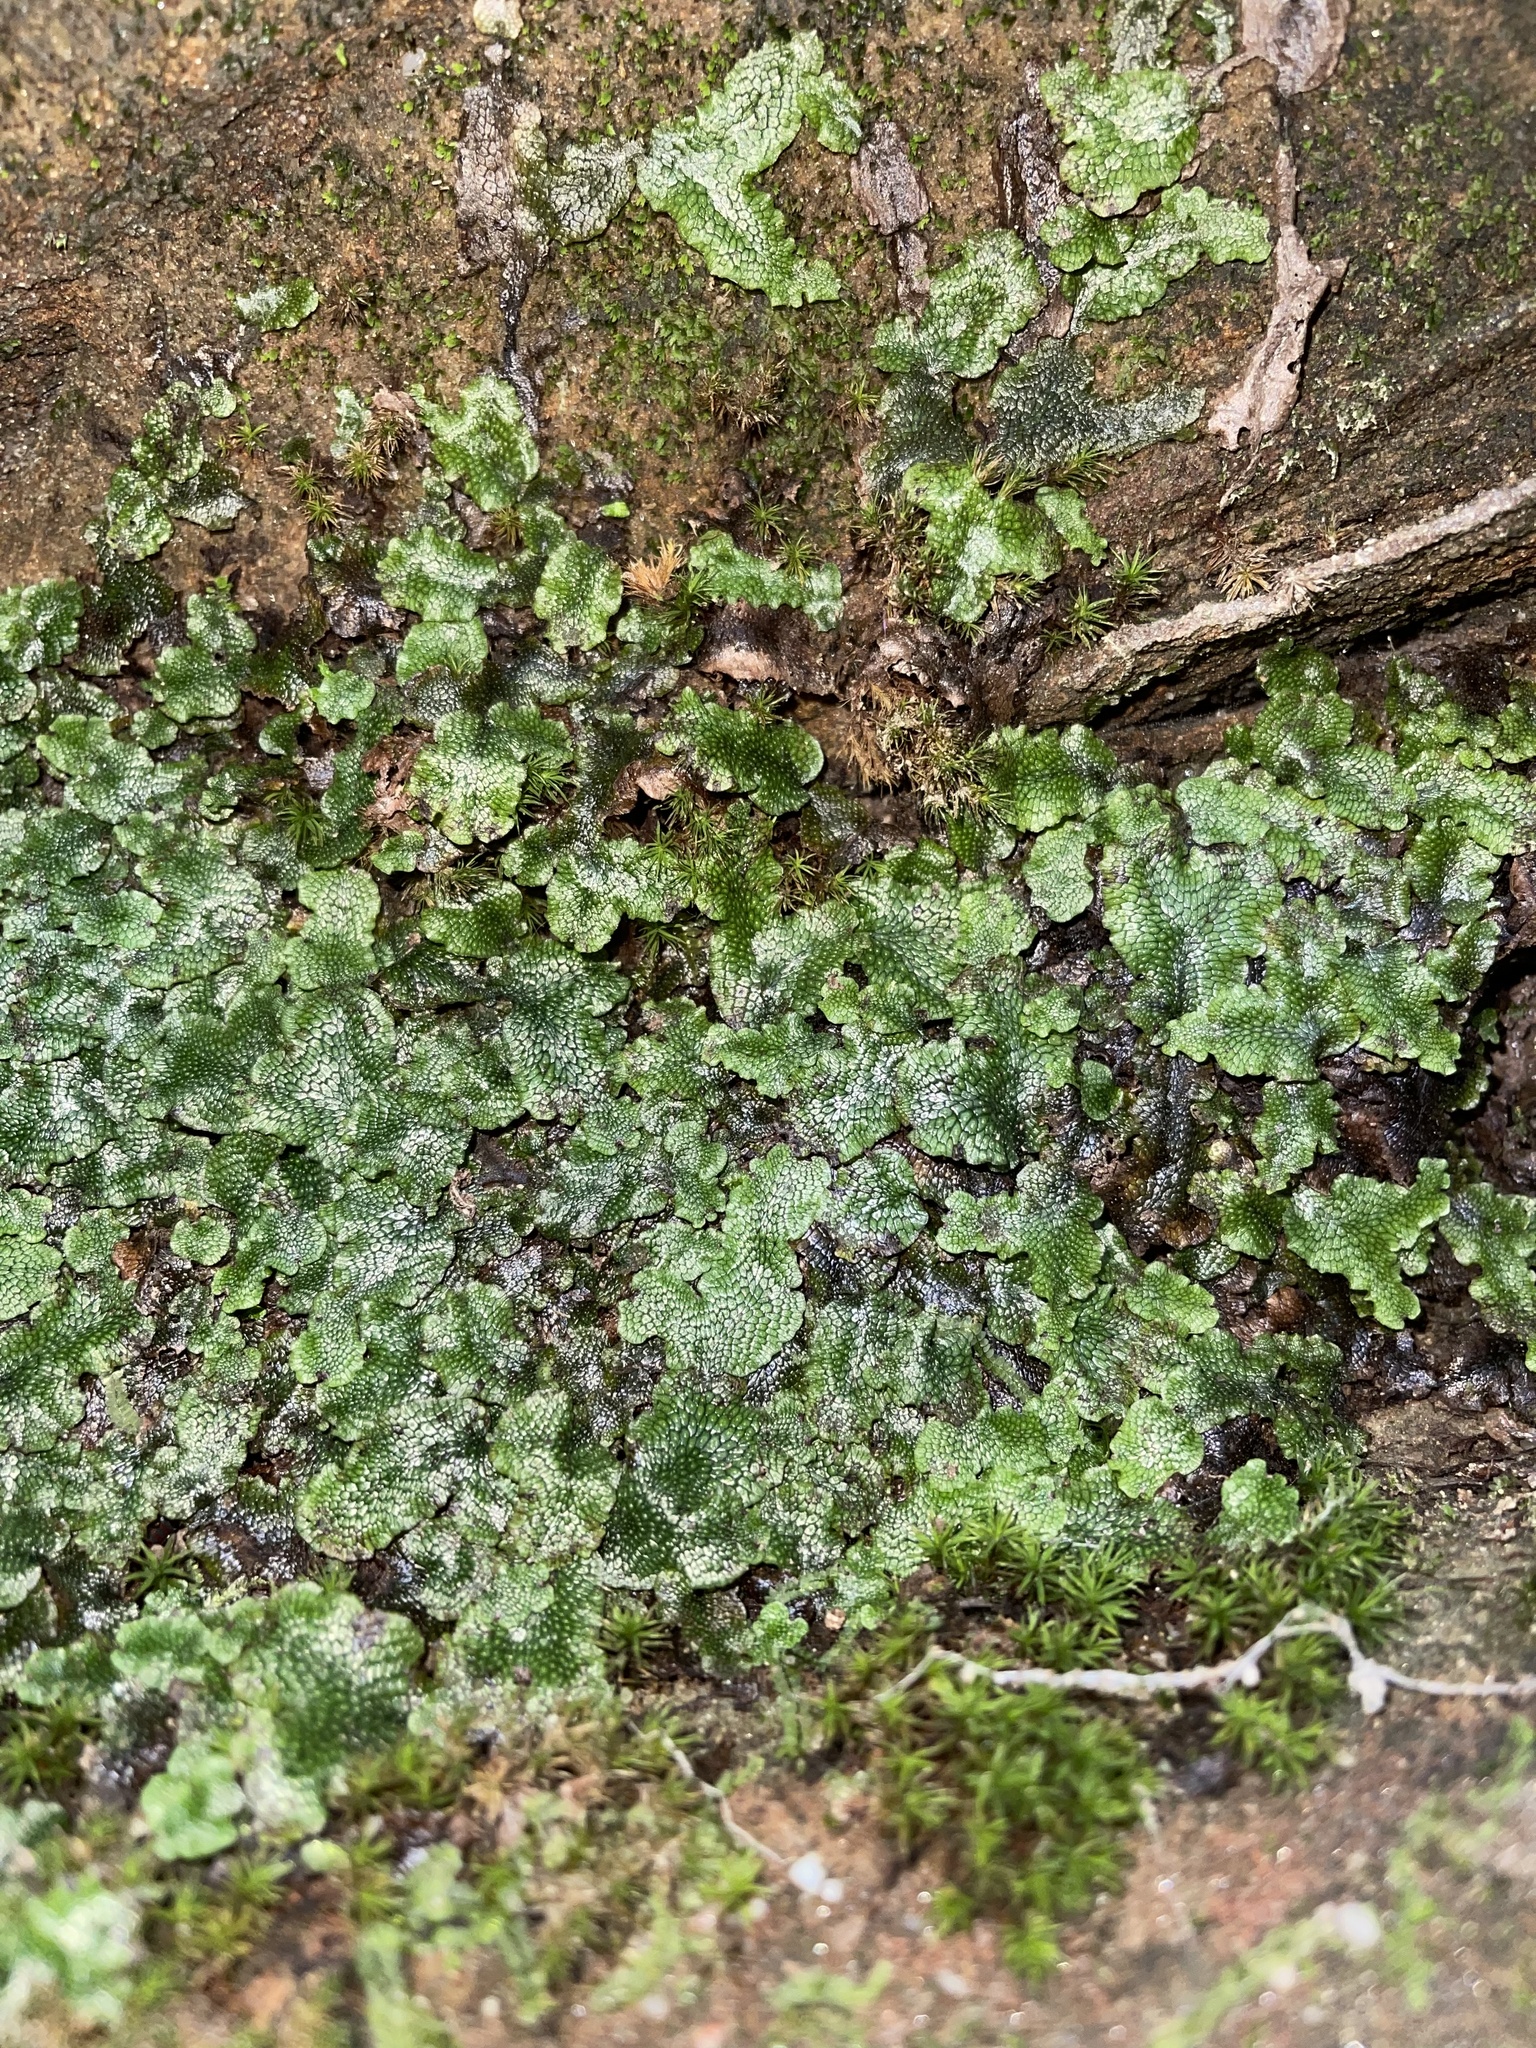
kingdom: Plantae
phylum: Marchantiophyta
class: Marchantiopsida
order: Marchantiales
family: Conocephalaceae
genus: Conocephalum
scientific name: Conocephalum salebrosum
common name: Cat-tongue liverwort
